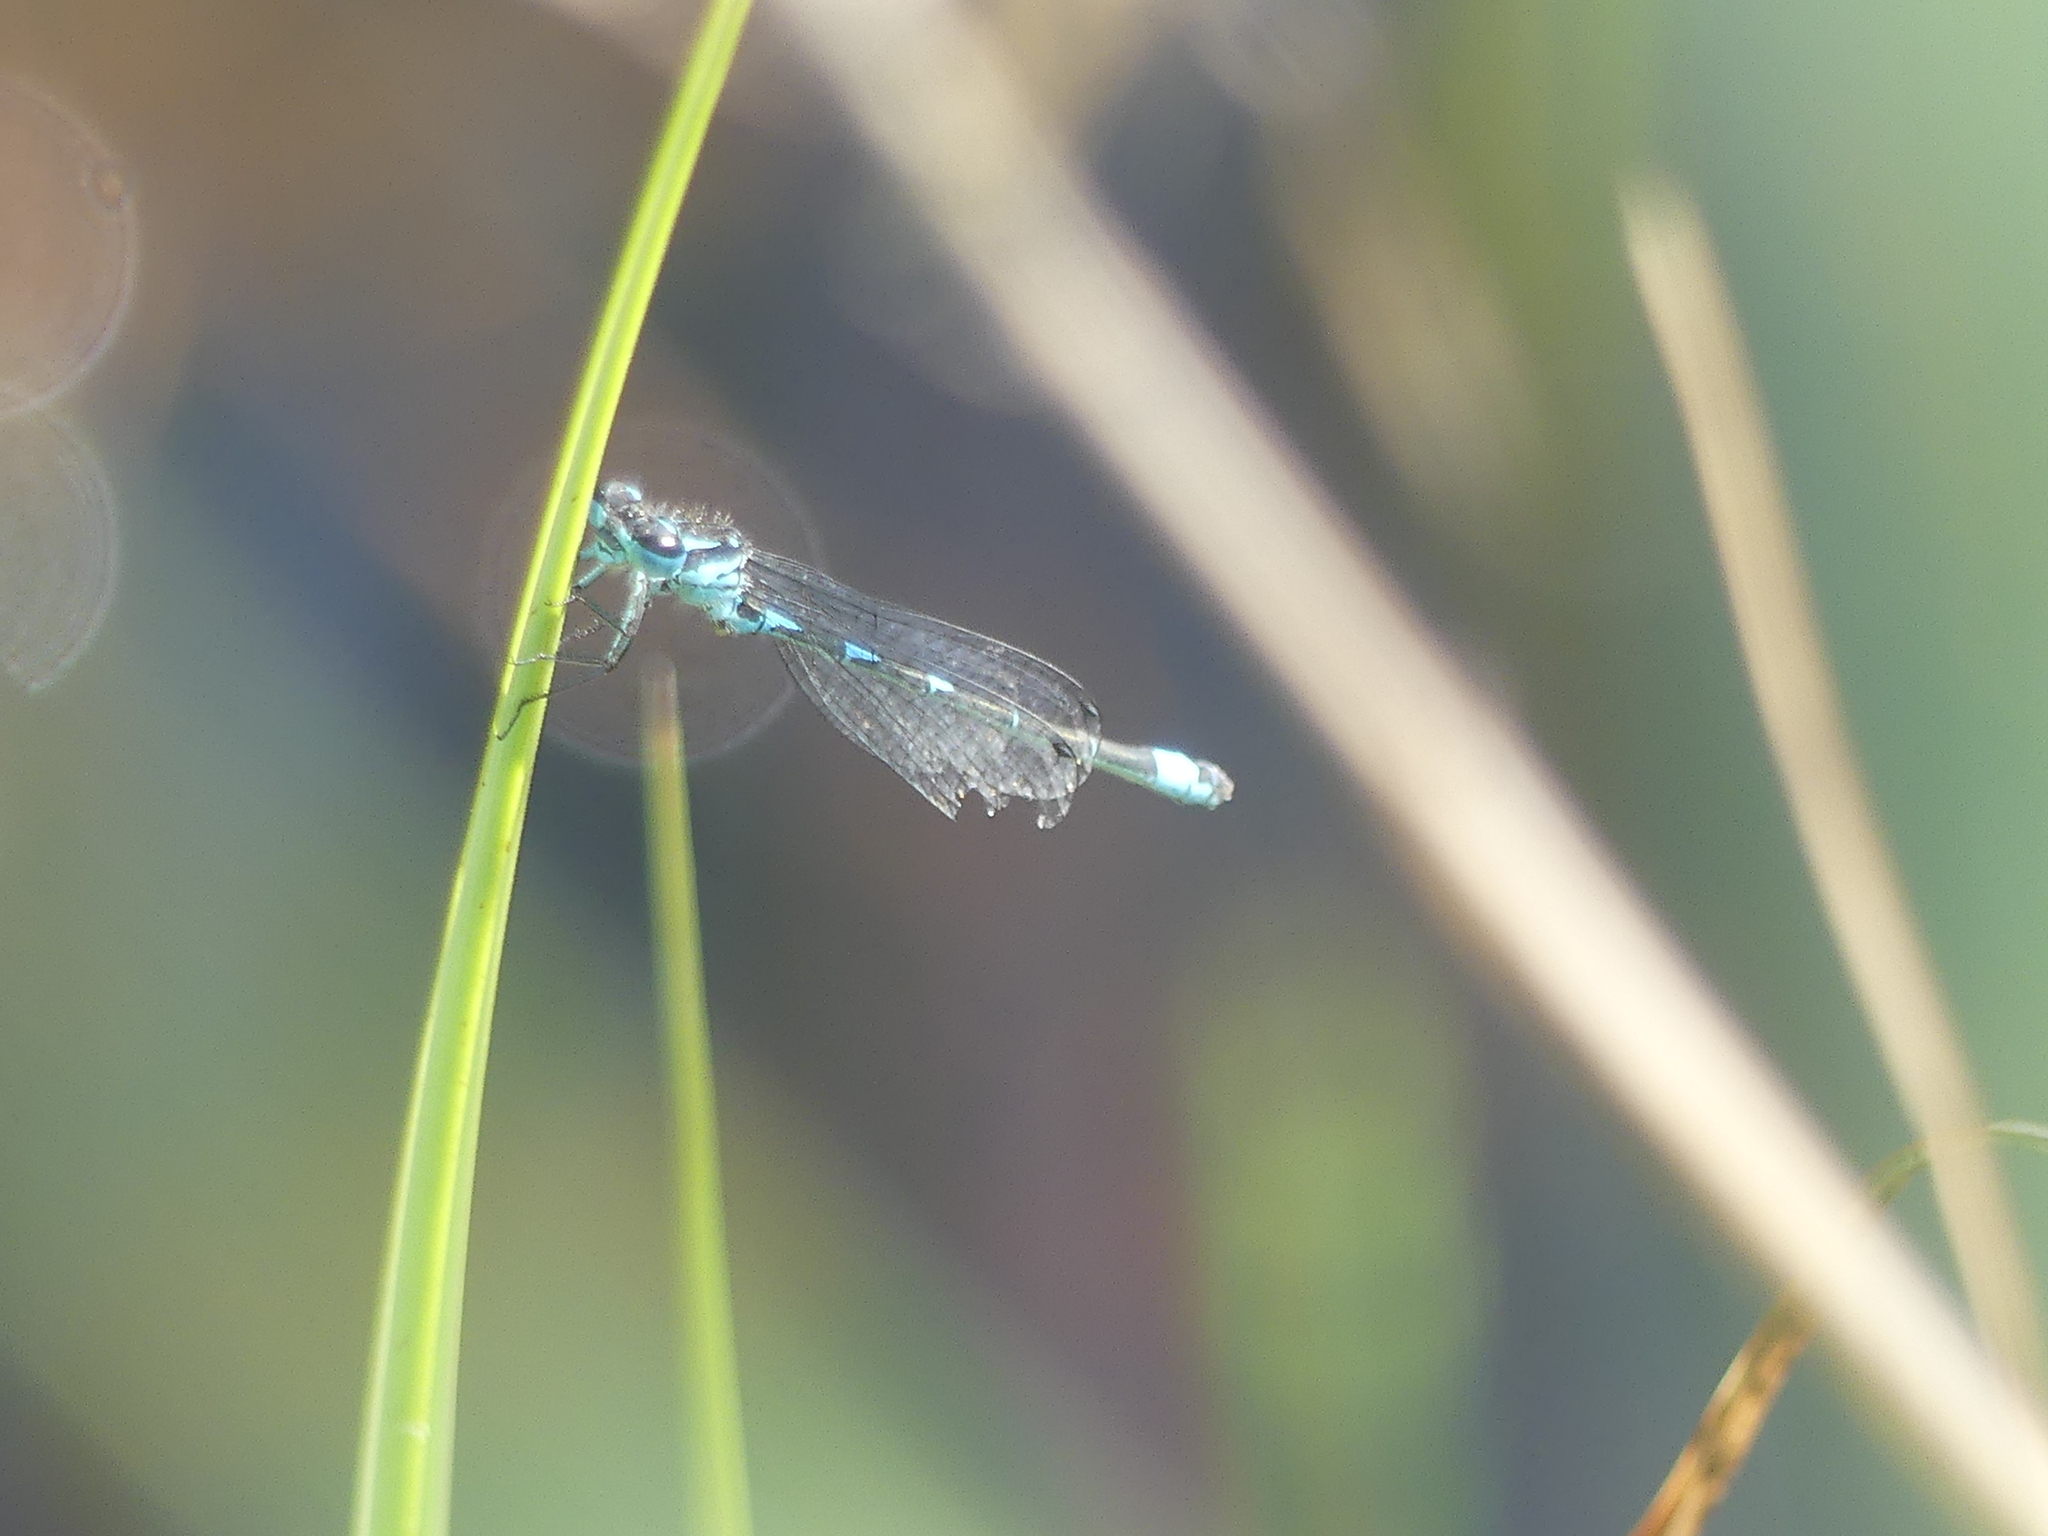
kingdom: Animalia
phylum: Arthropoda
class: Insecta
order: Odonata
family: Coenagrionidae
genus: Coenagrion
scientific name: Coenagrion pulchellum
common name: Variable bluet
